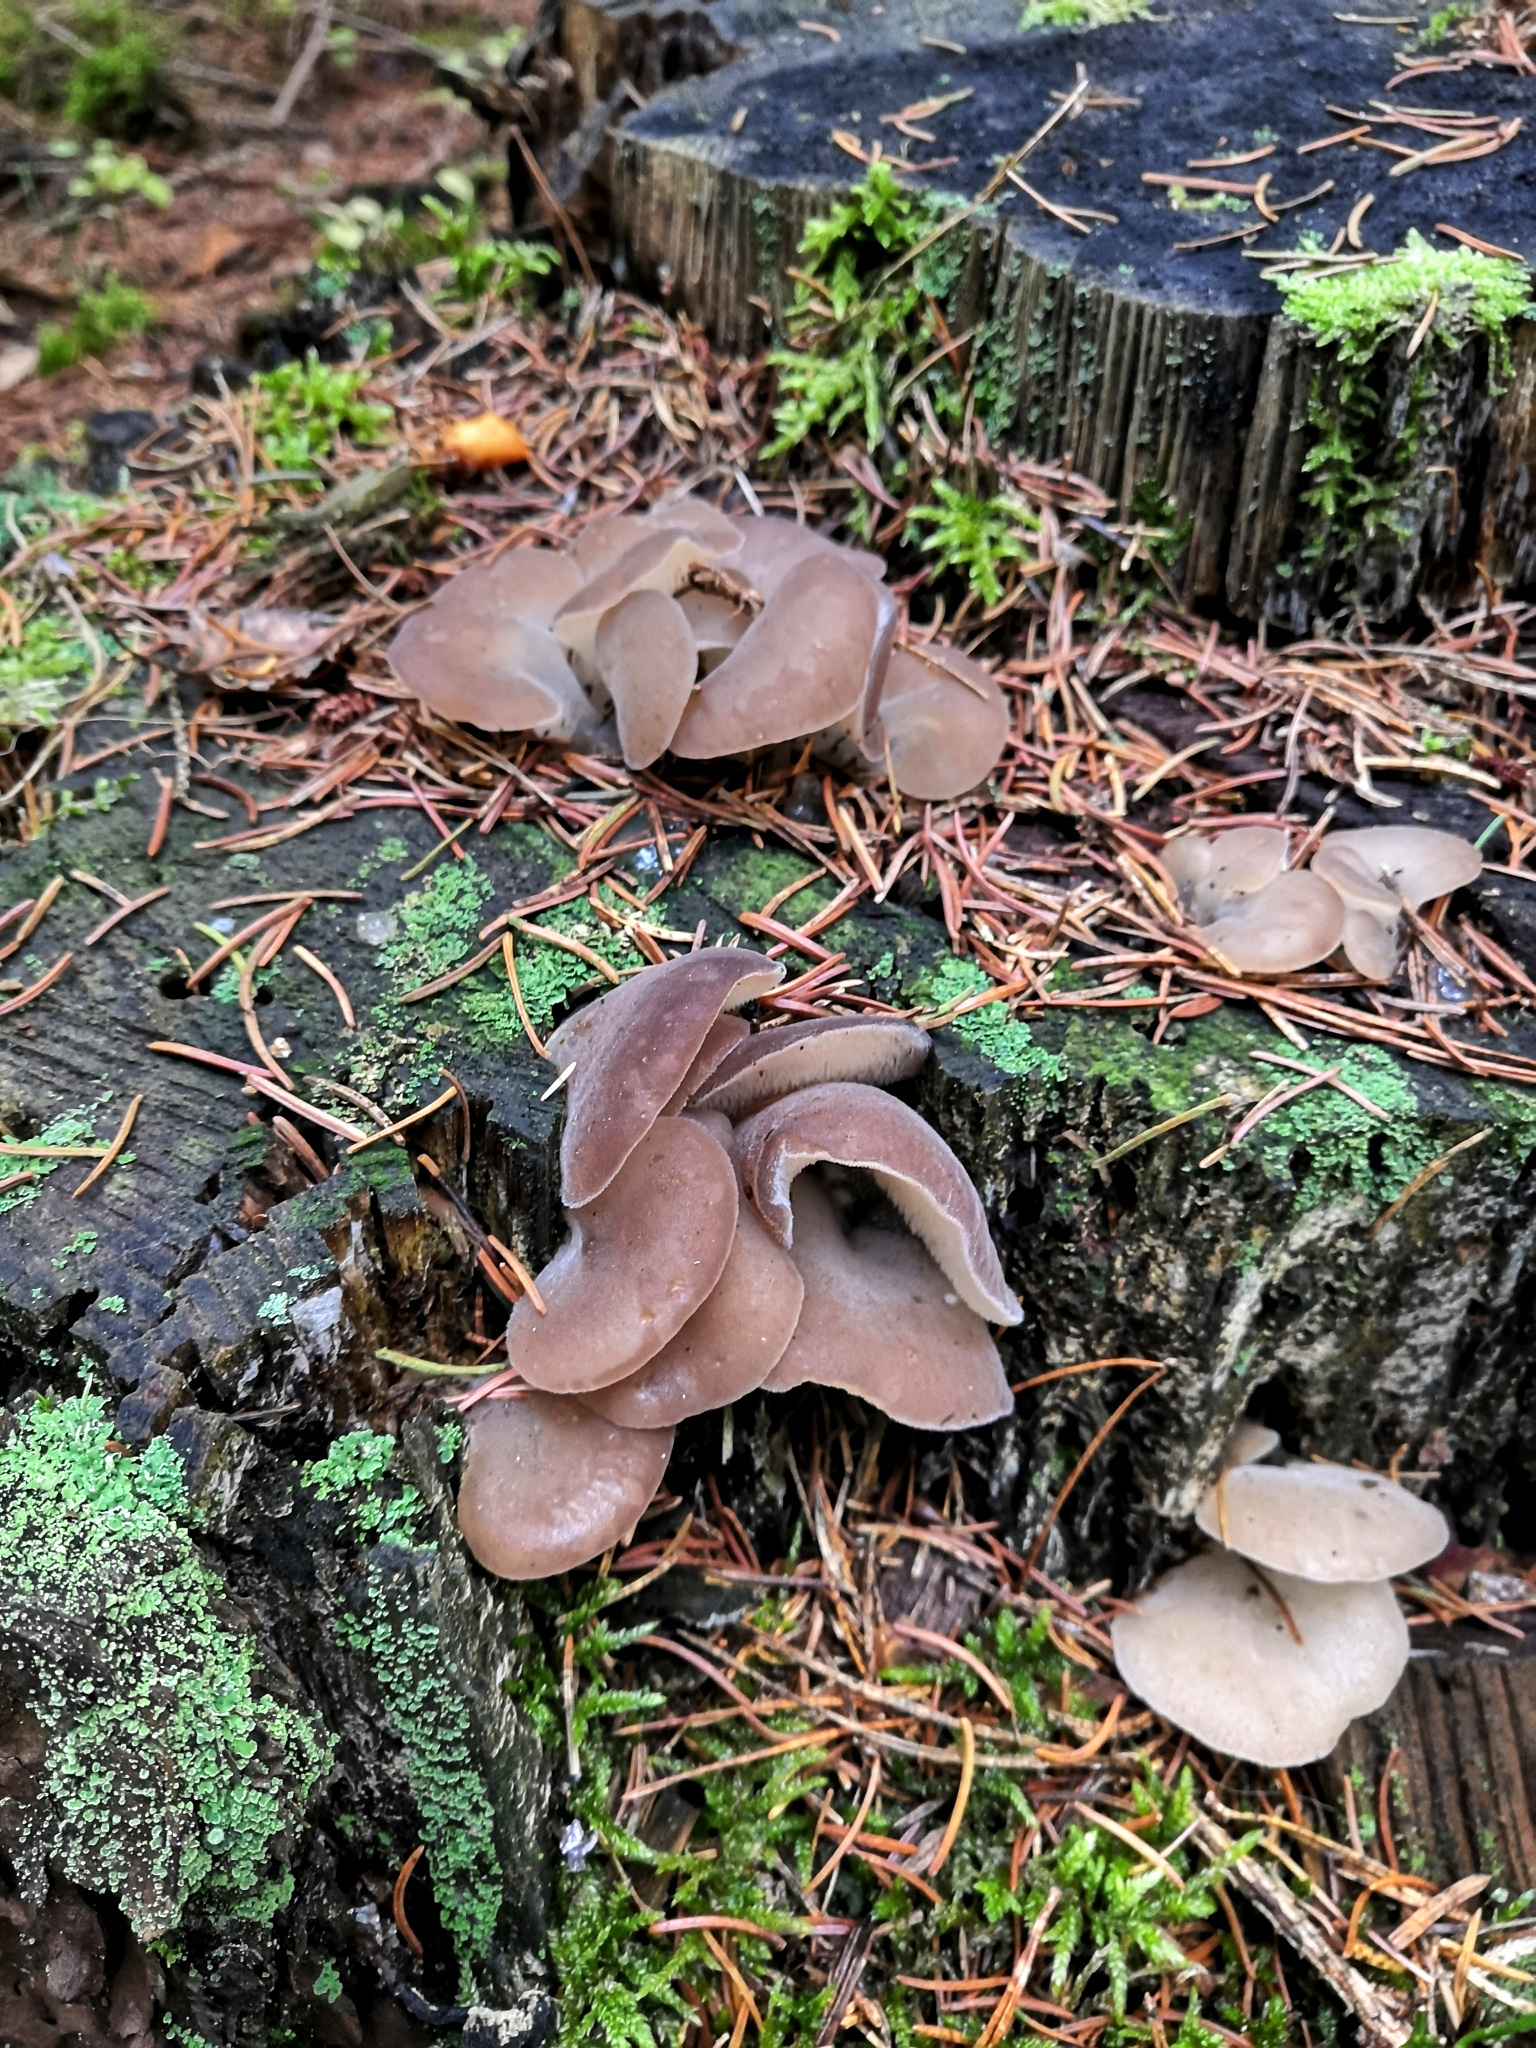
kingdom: Fungi
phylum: Basidiomycota
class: Agaricomycetes
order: Auriculariales
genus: Pseudohydnum
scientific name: Pseudohydnum gelatinosum
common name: Jelly tongue
